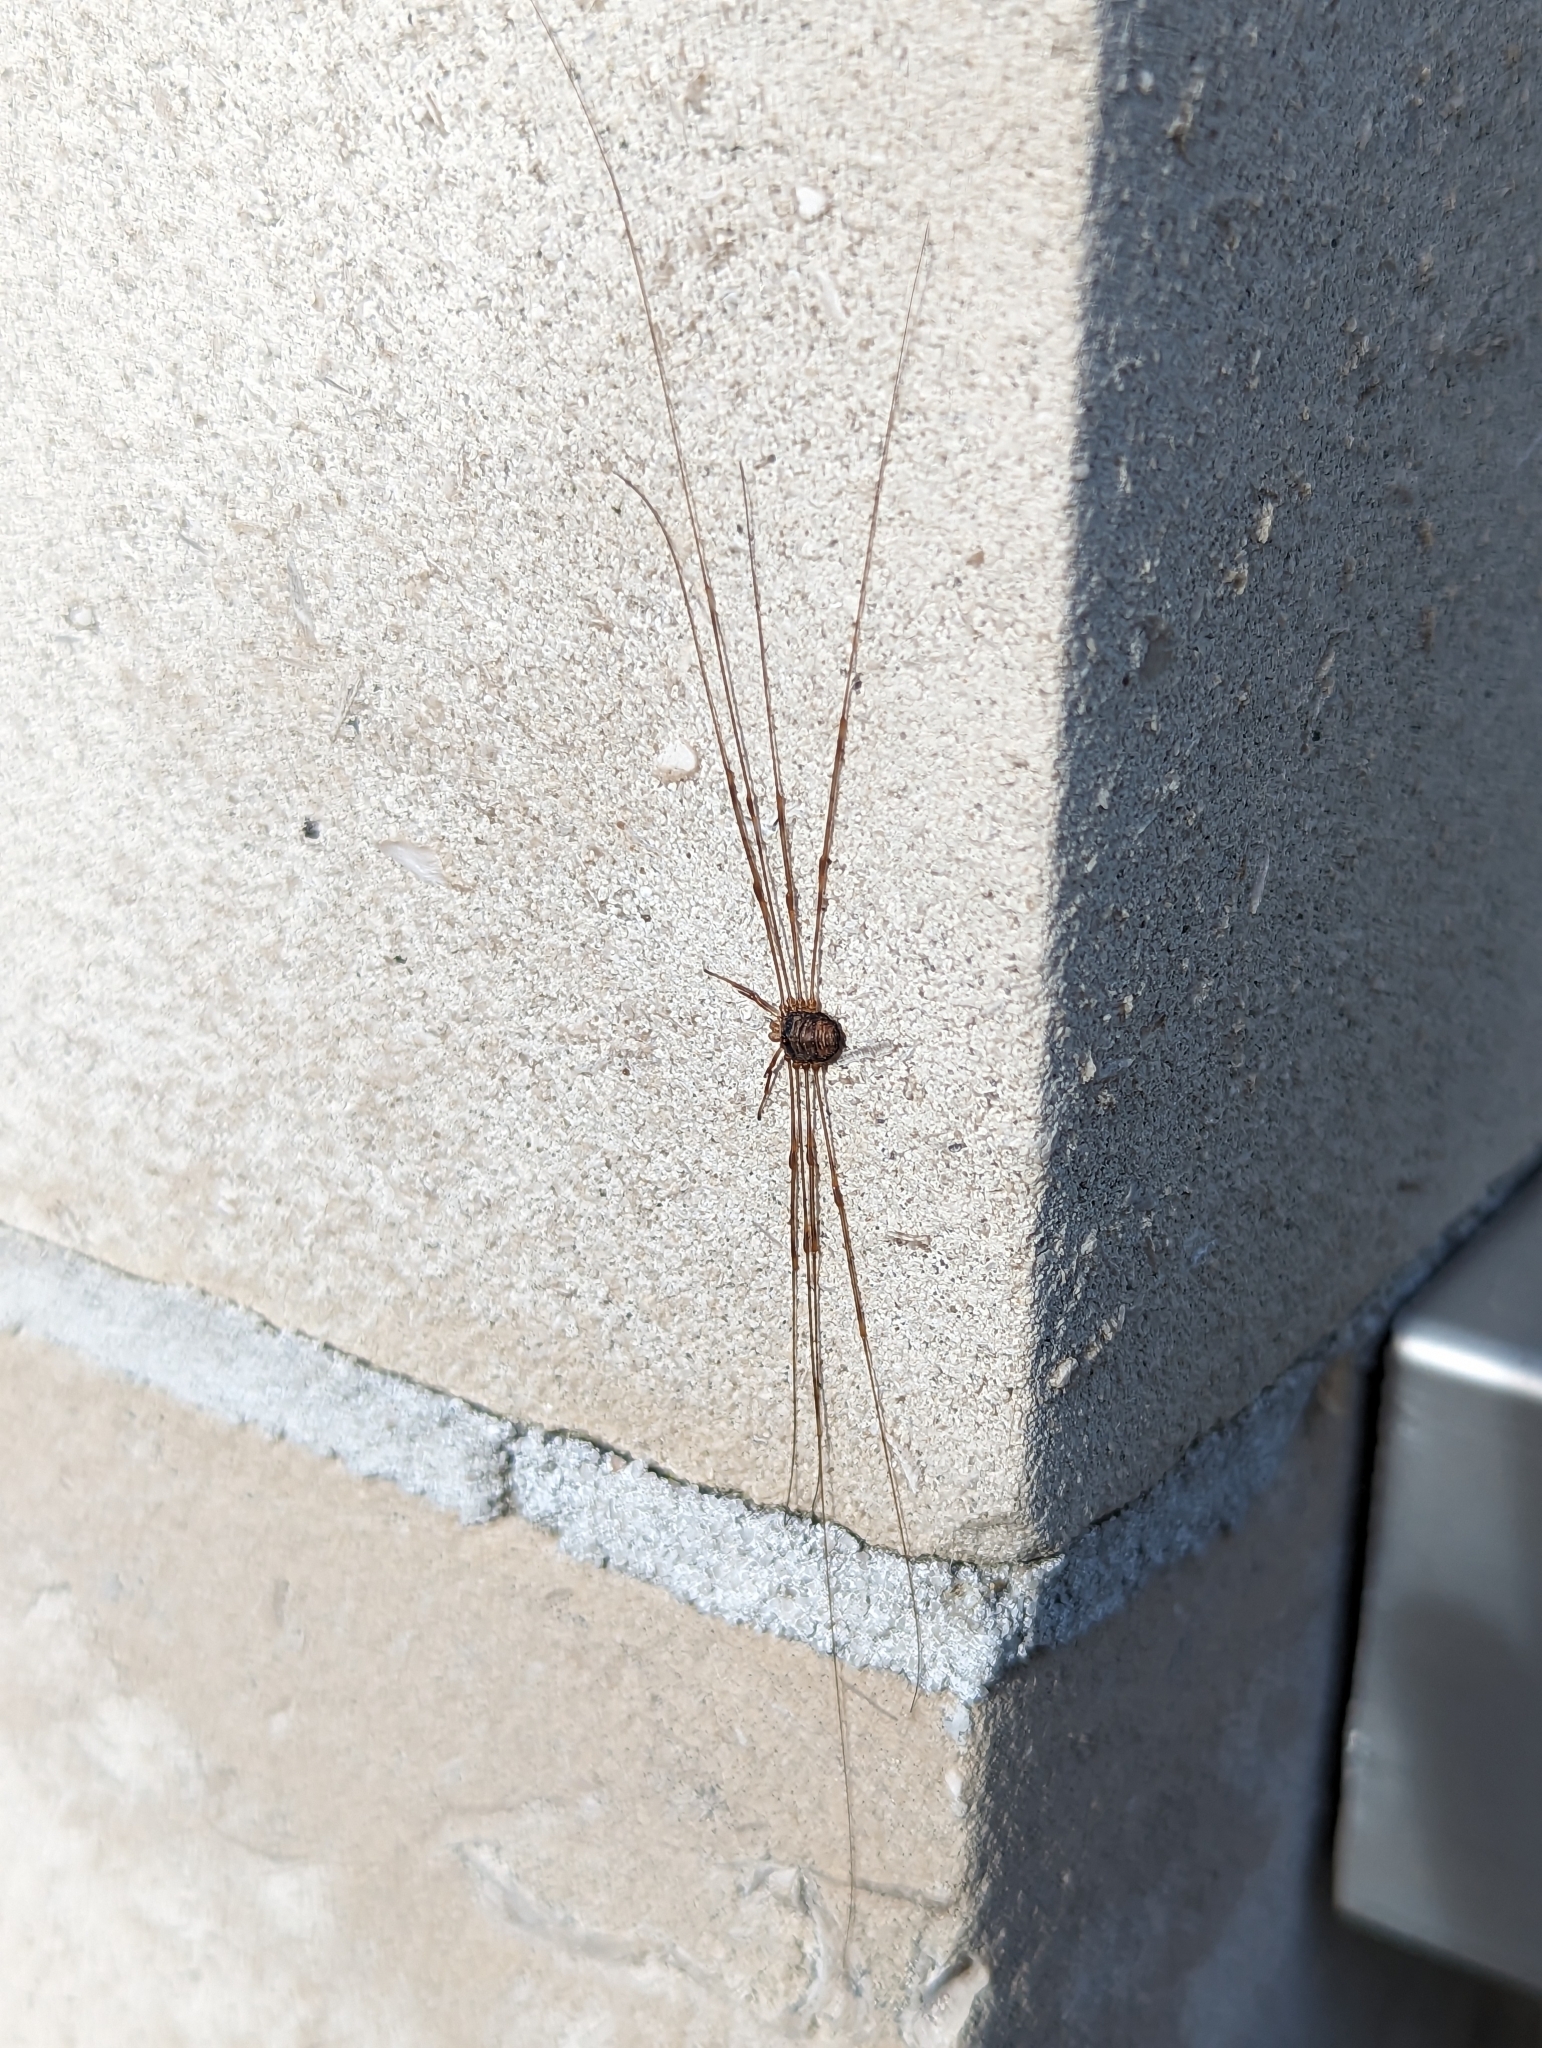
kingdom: Animalia
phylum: Arthropoda
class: Arachnida
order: Opiliones
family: Phalangiidae
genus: Dicranopalpus
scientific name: Dicranopalpus ramosus
